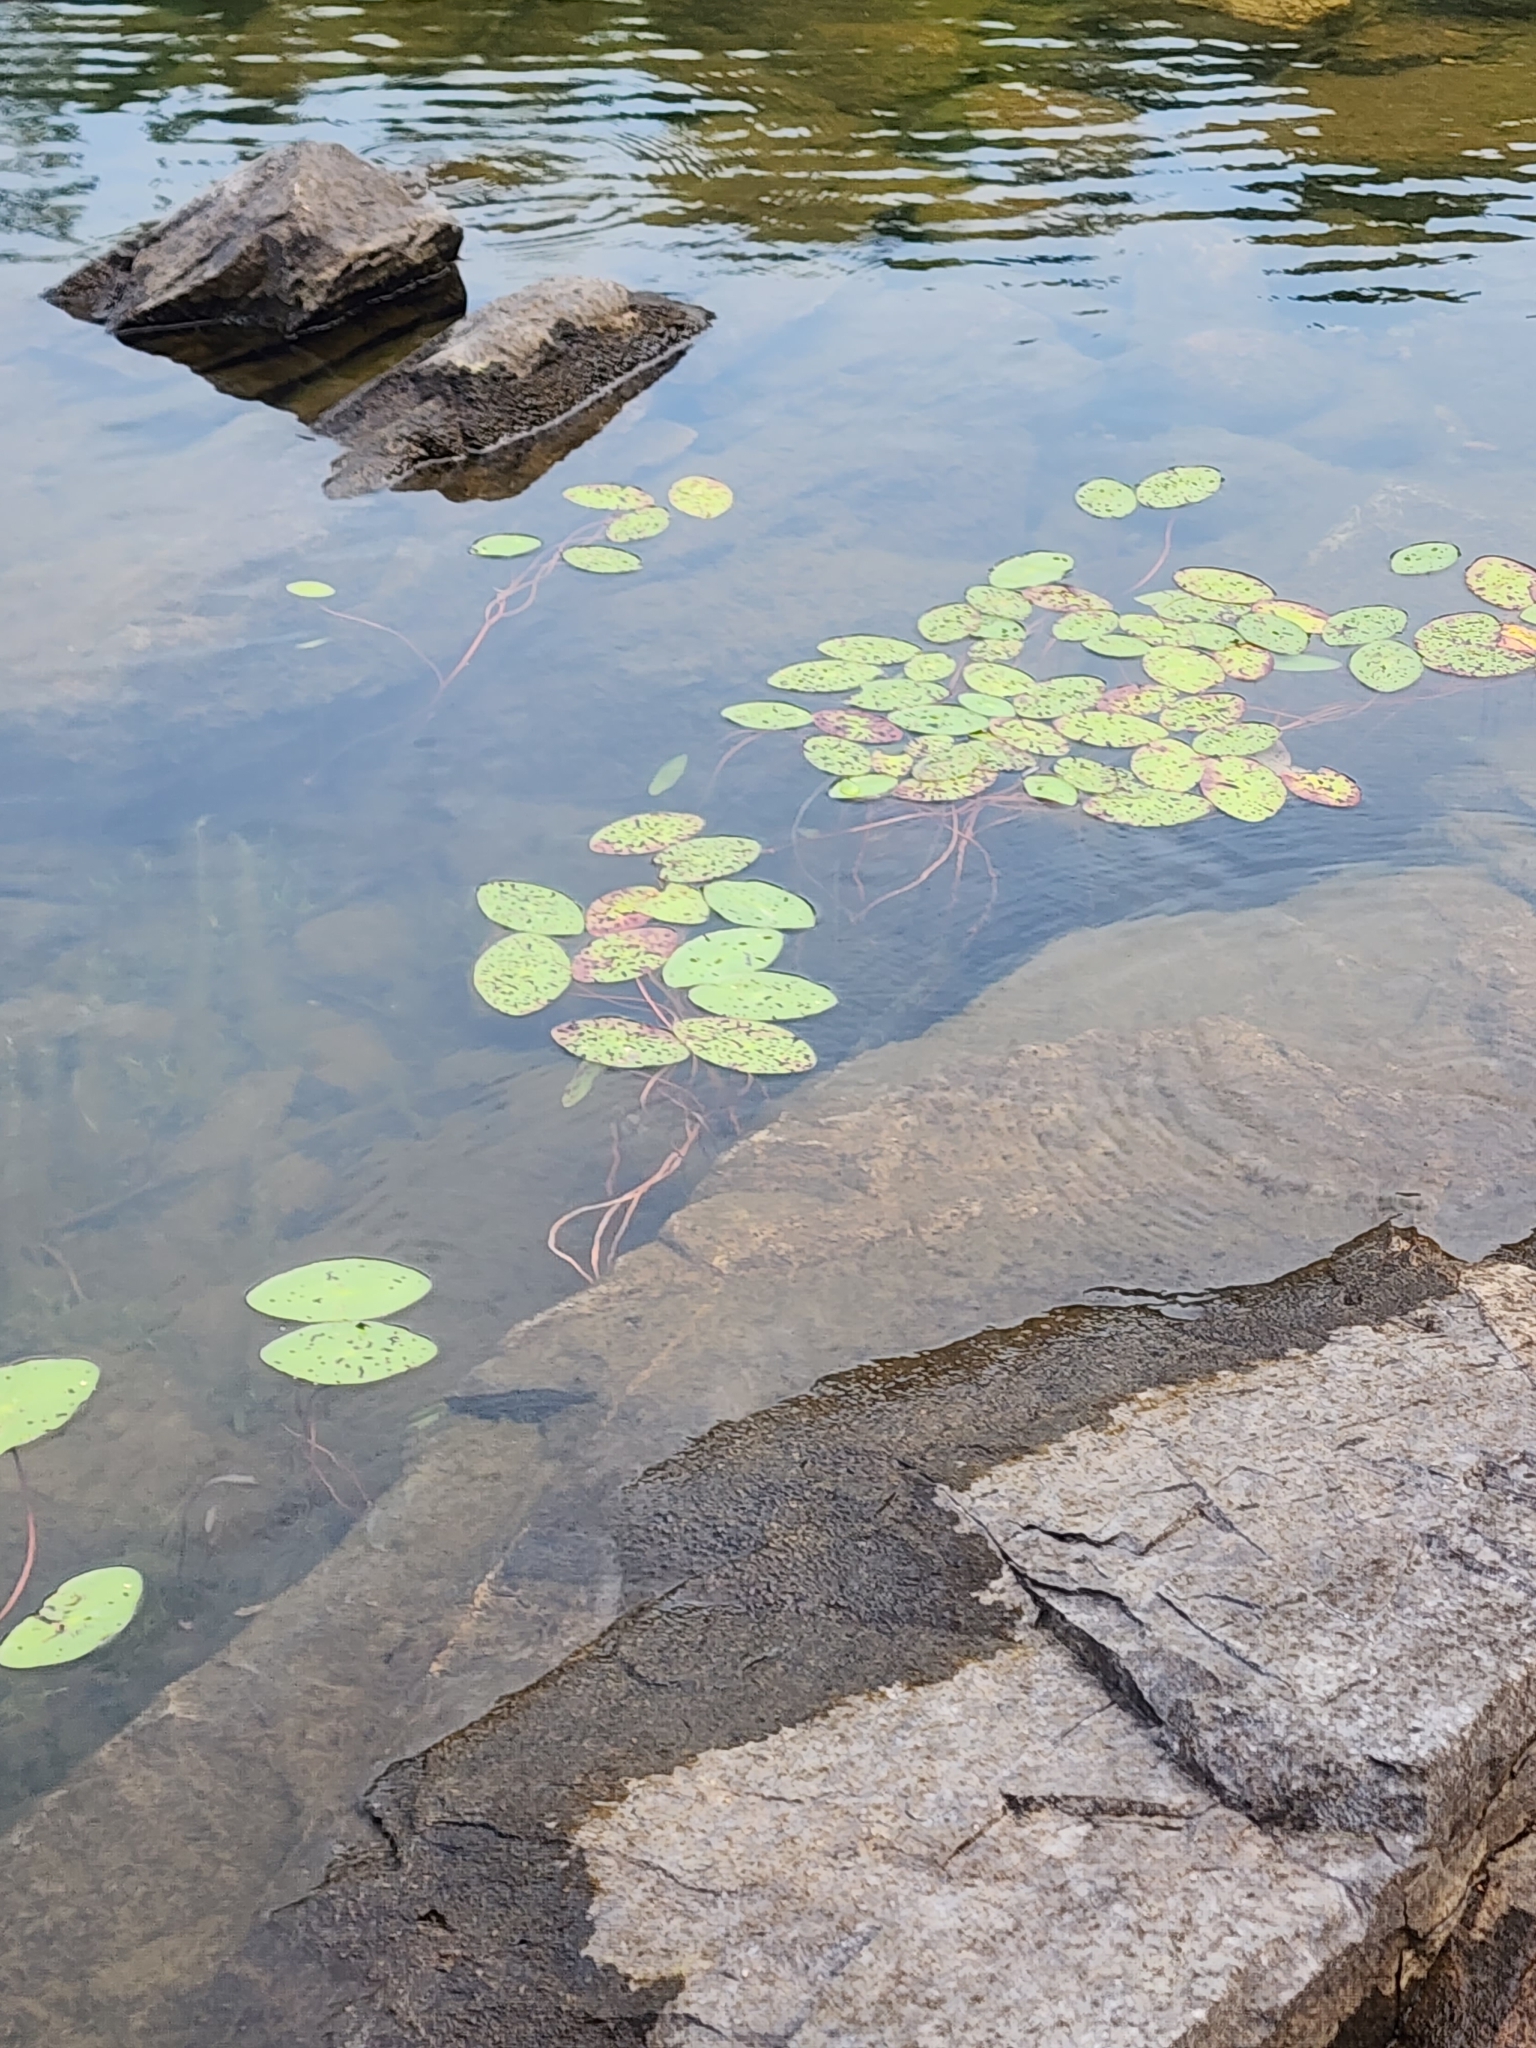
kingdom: Plantae
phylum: Tracheophyta
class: Magnoliopsida
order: Nymphaeales
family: Cabombaceae
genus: Brasenia
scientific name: Brasenia schreberi
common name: Water-shield
